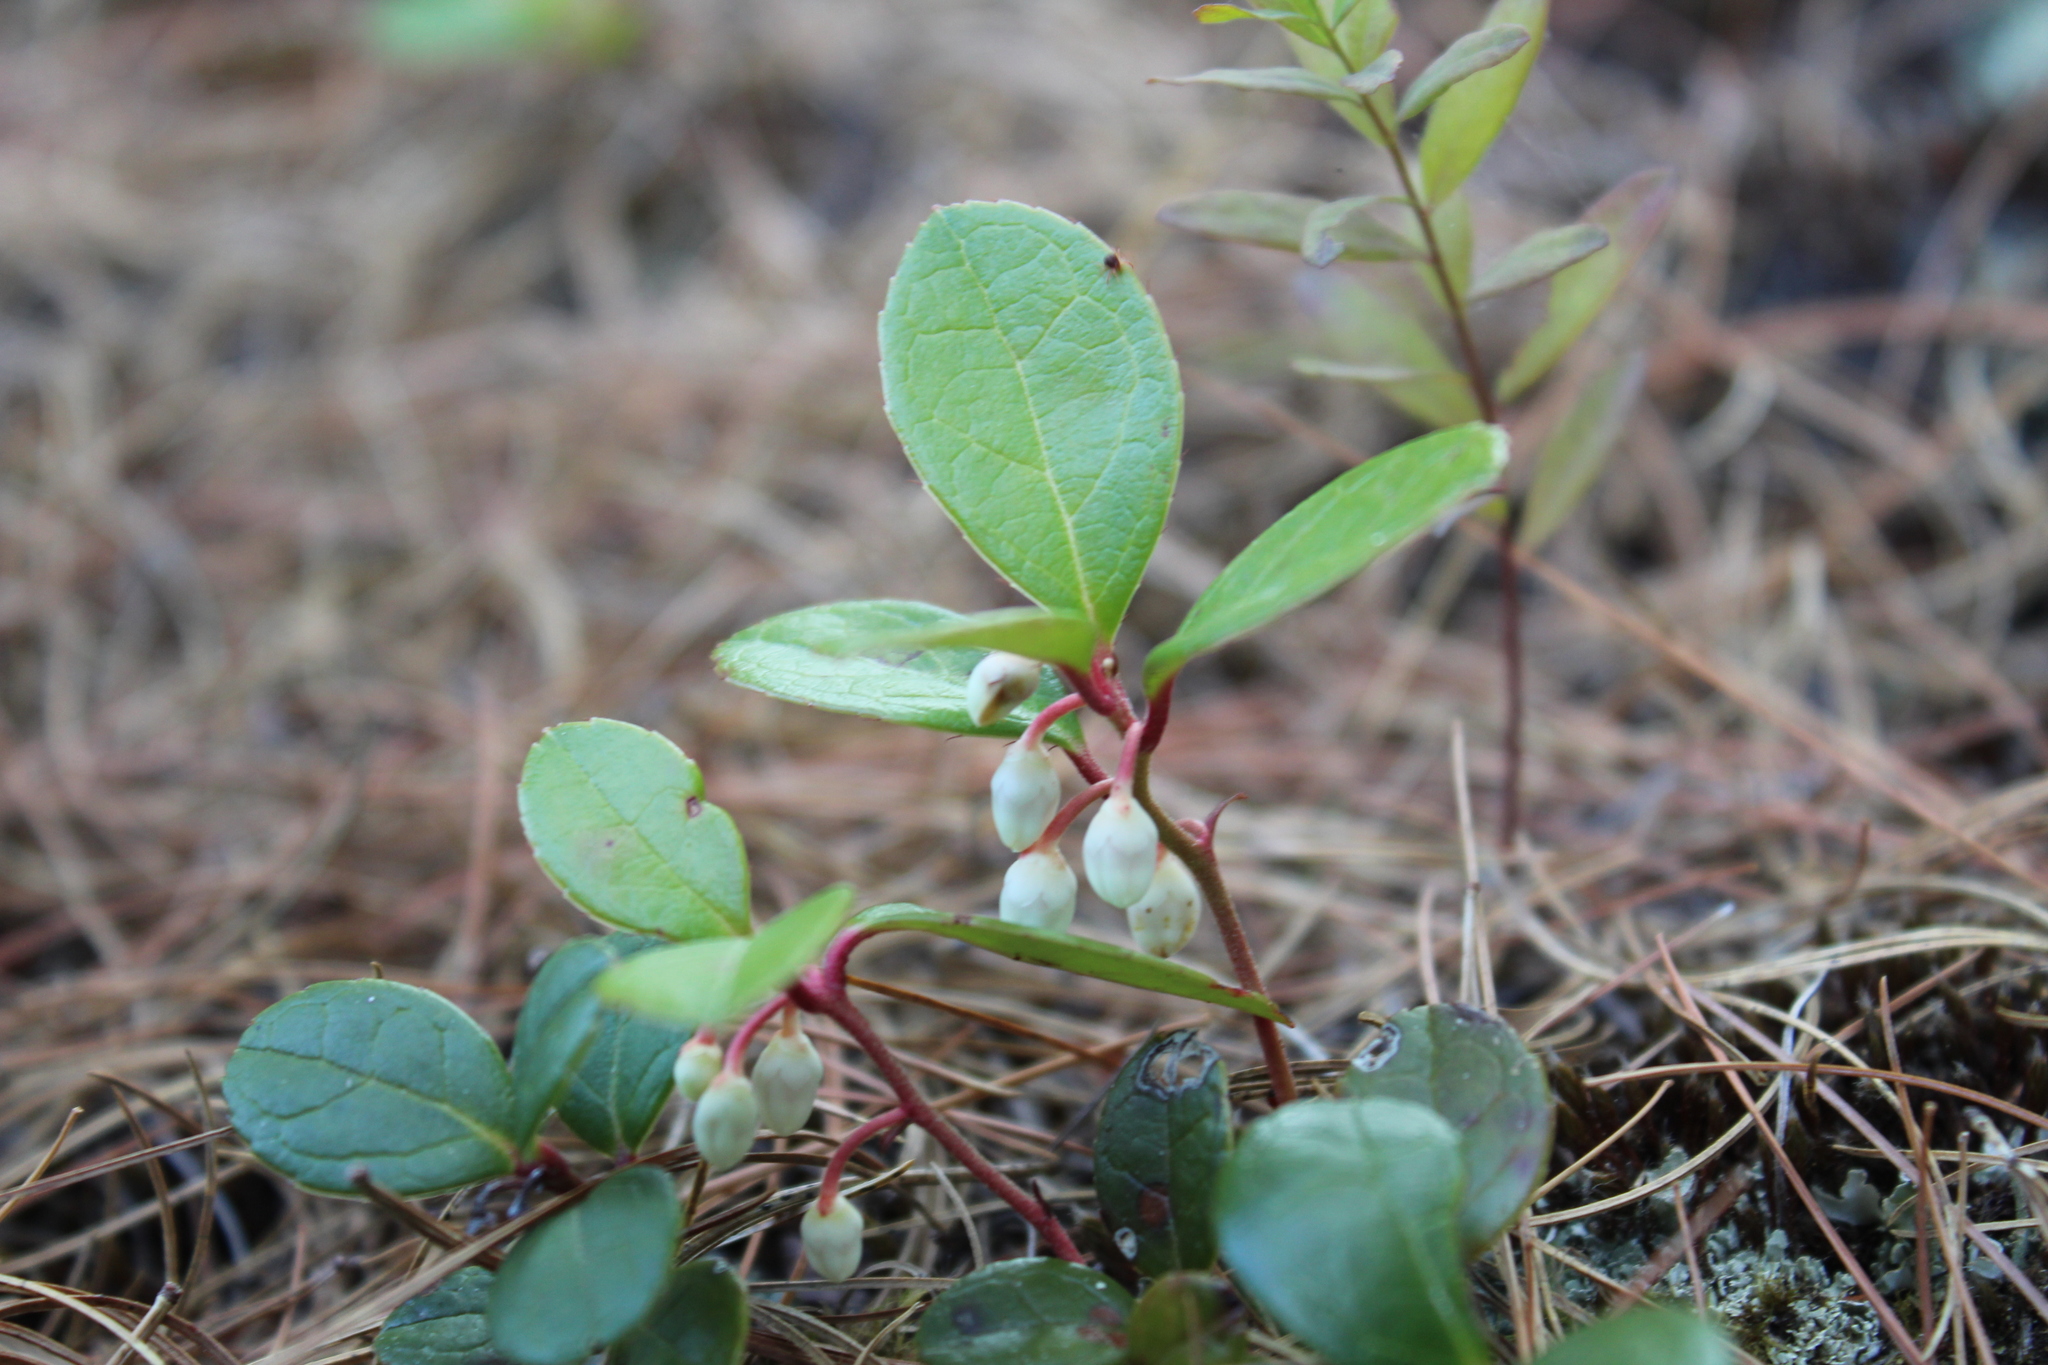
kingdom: Plantae
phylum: Tracheophyta
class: Magnoliopsida
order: Ericales
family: Ericaceae
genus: Gaultheria
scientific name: Gaultheria procumbens
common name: Checkerberry
